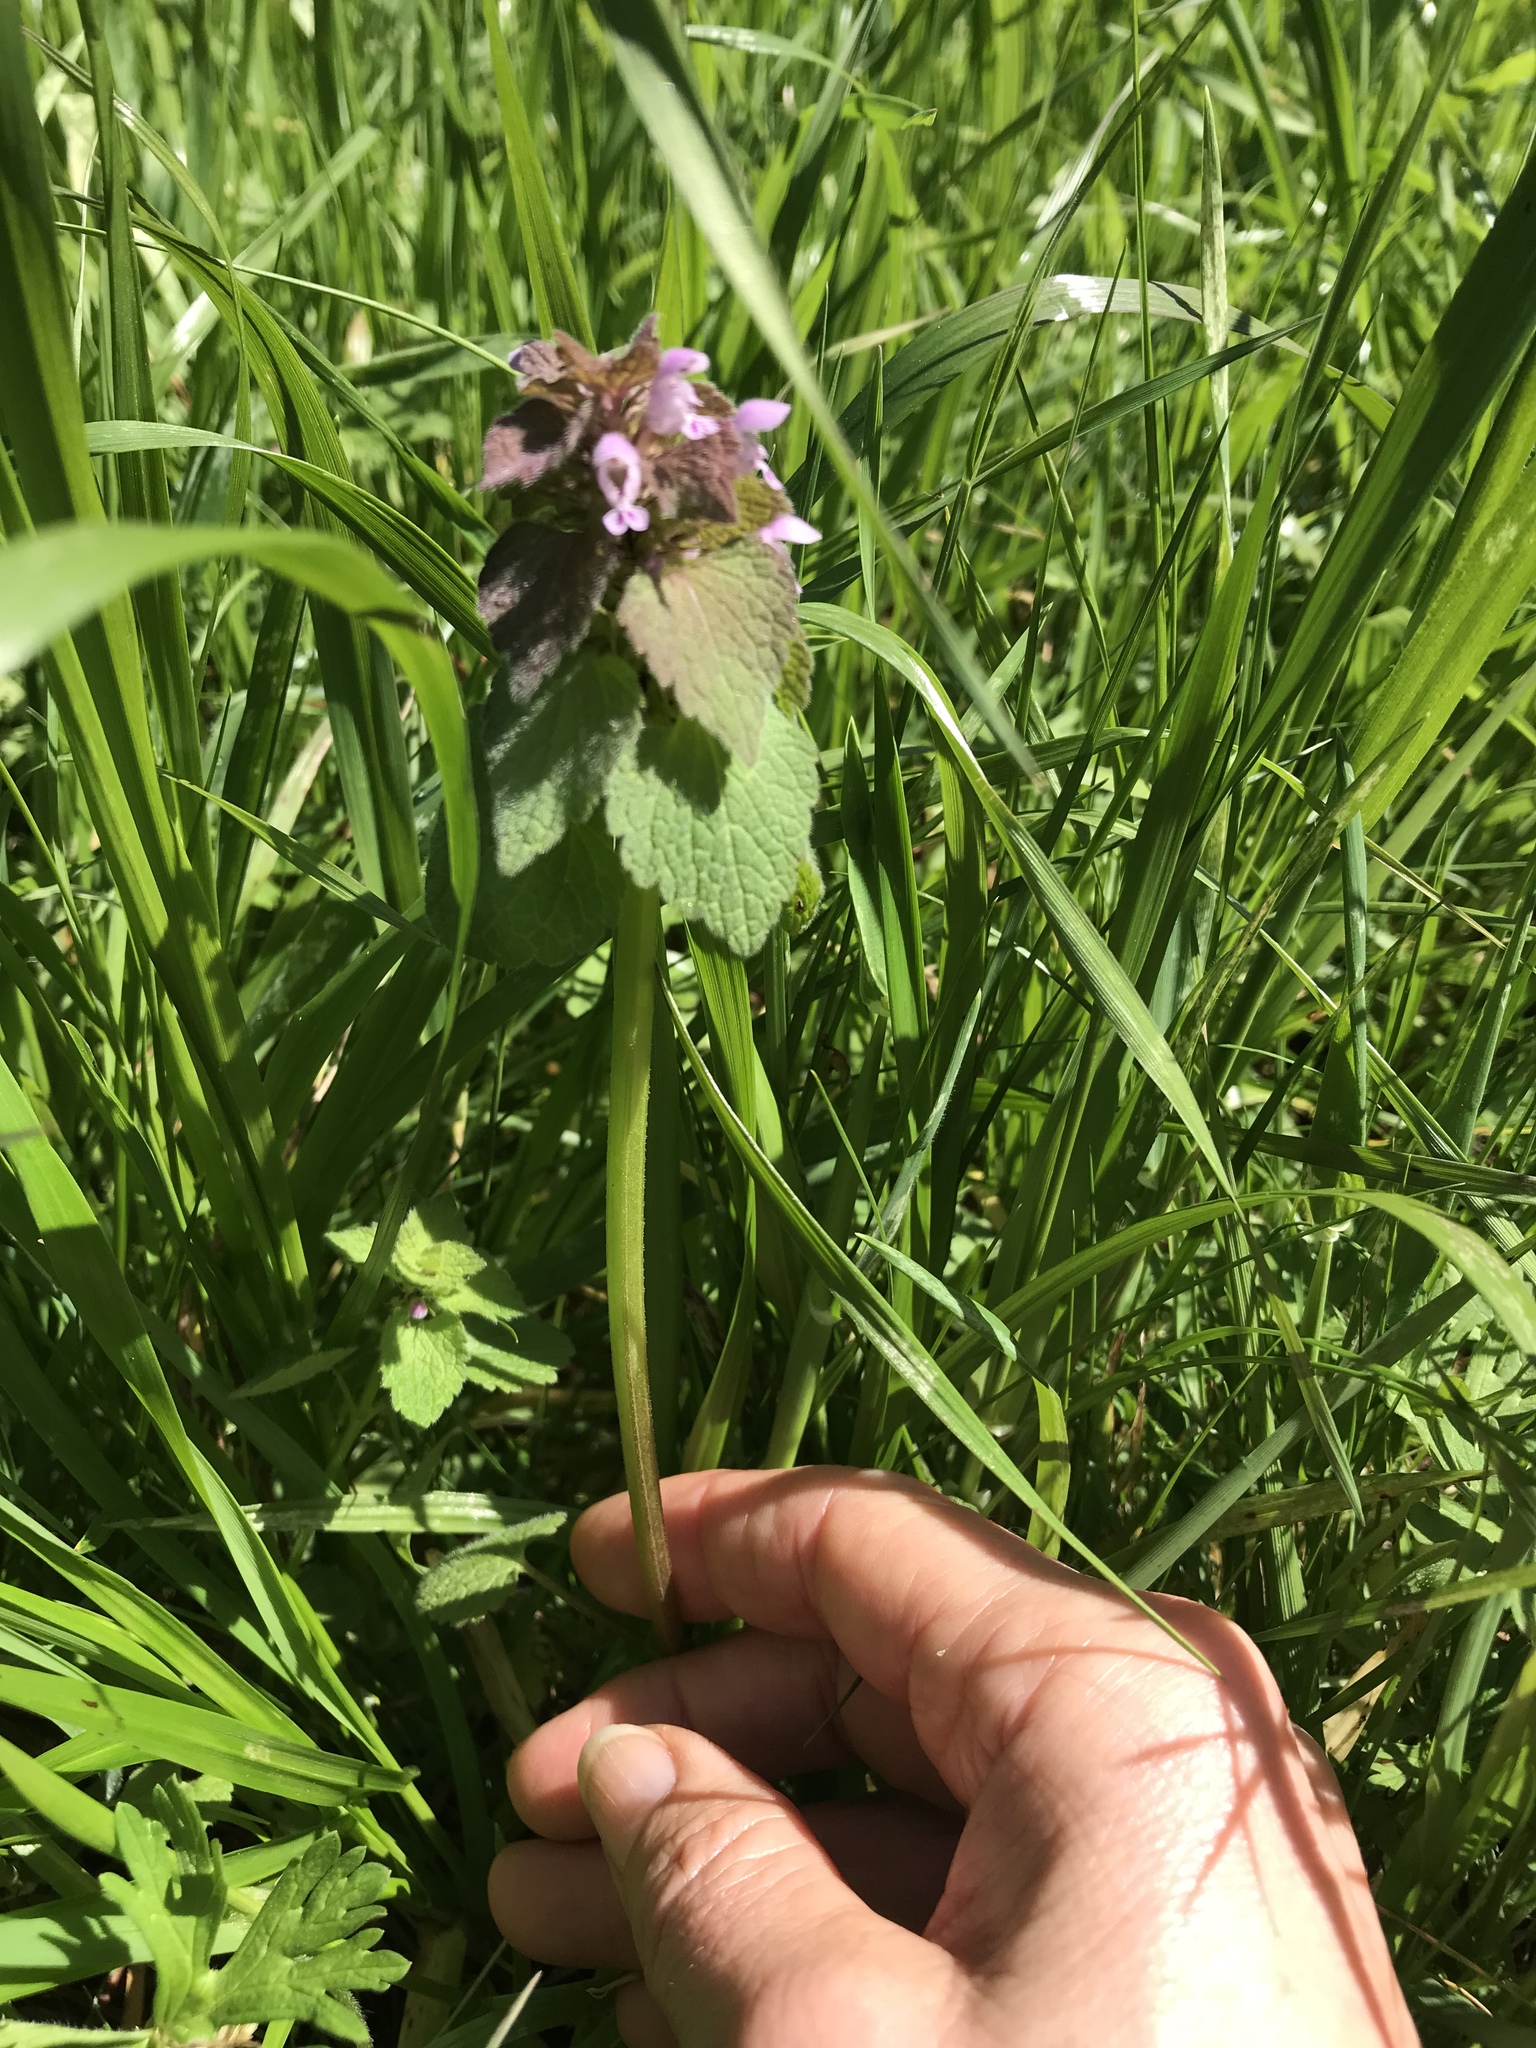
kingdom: Plantae
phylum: Tracheophyta
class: Magnoliopsida
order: Lamiales
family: Lamiaceae
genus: Lamium
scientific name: Lamium purpureum
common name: Red dead-nettle
